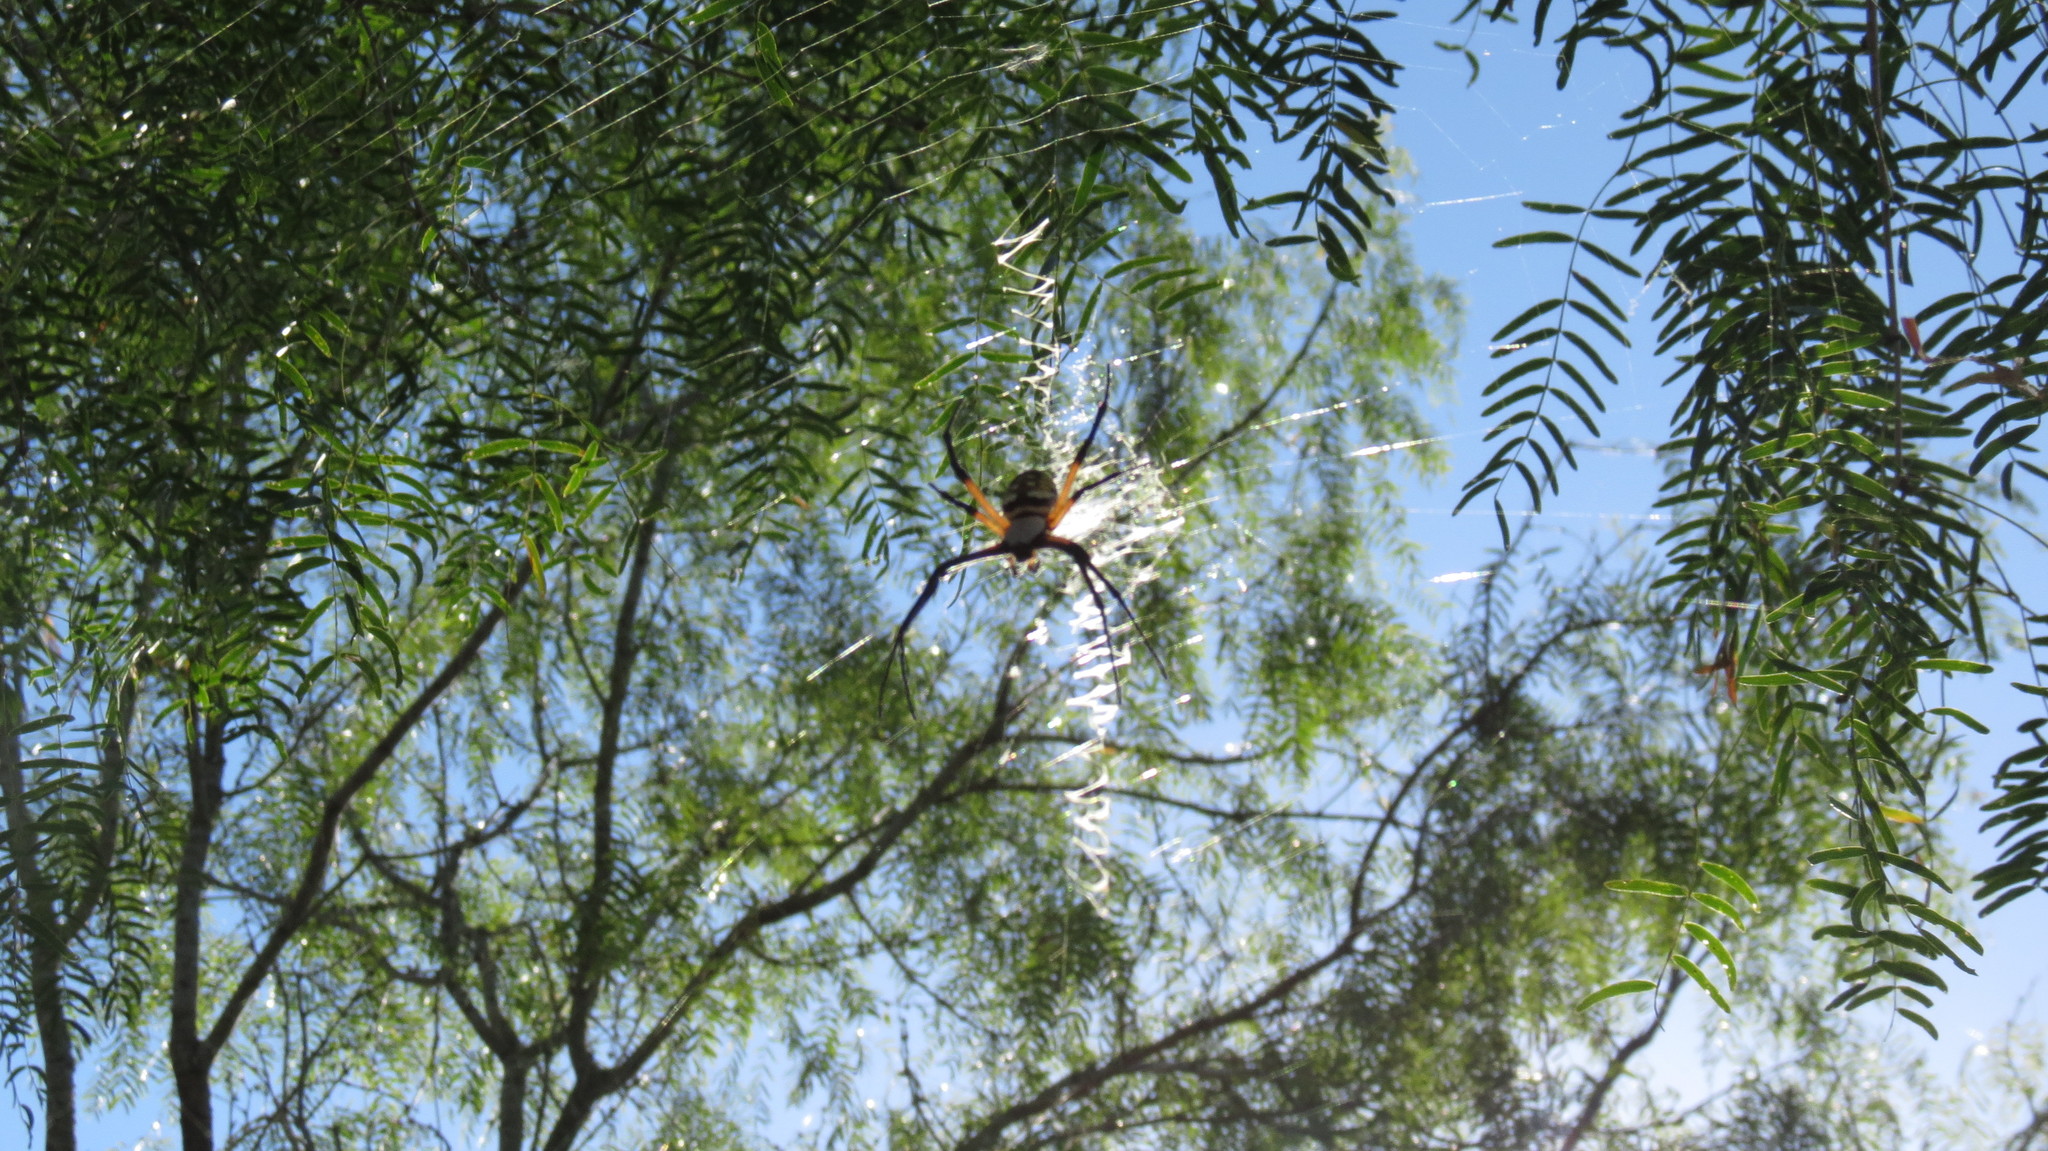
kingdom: Animalia
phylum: Arthropoda
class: Arachnida
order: Araneae
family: Araneidae
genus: Argiope
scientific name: Argiope aurantia
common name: Orb weavers
